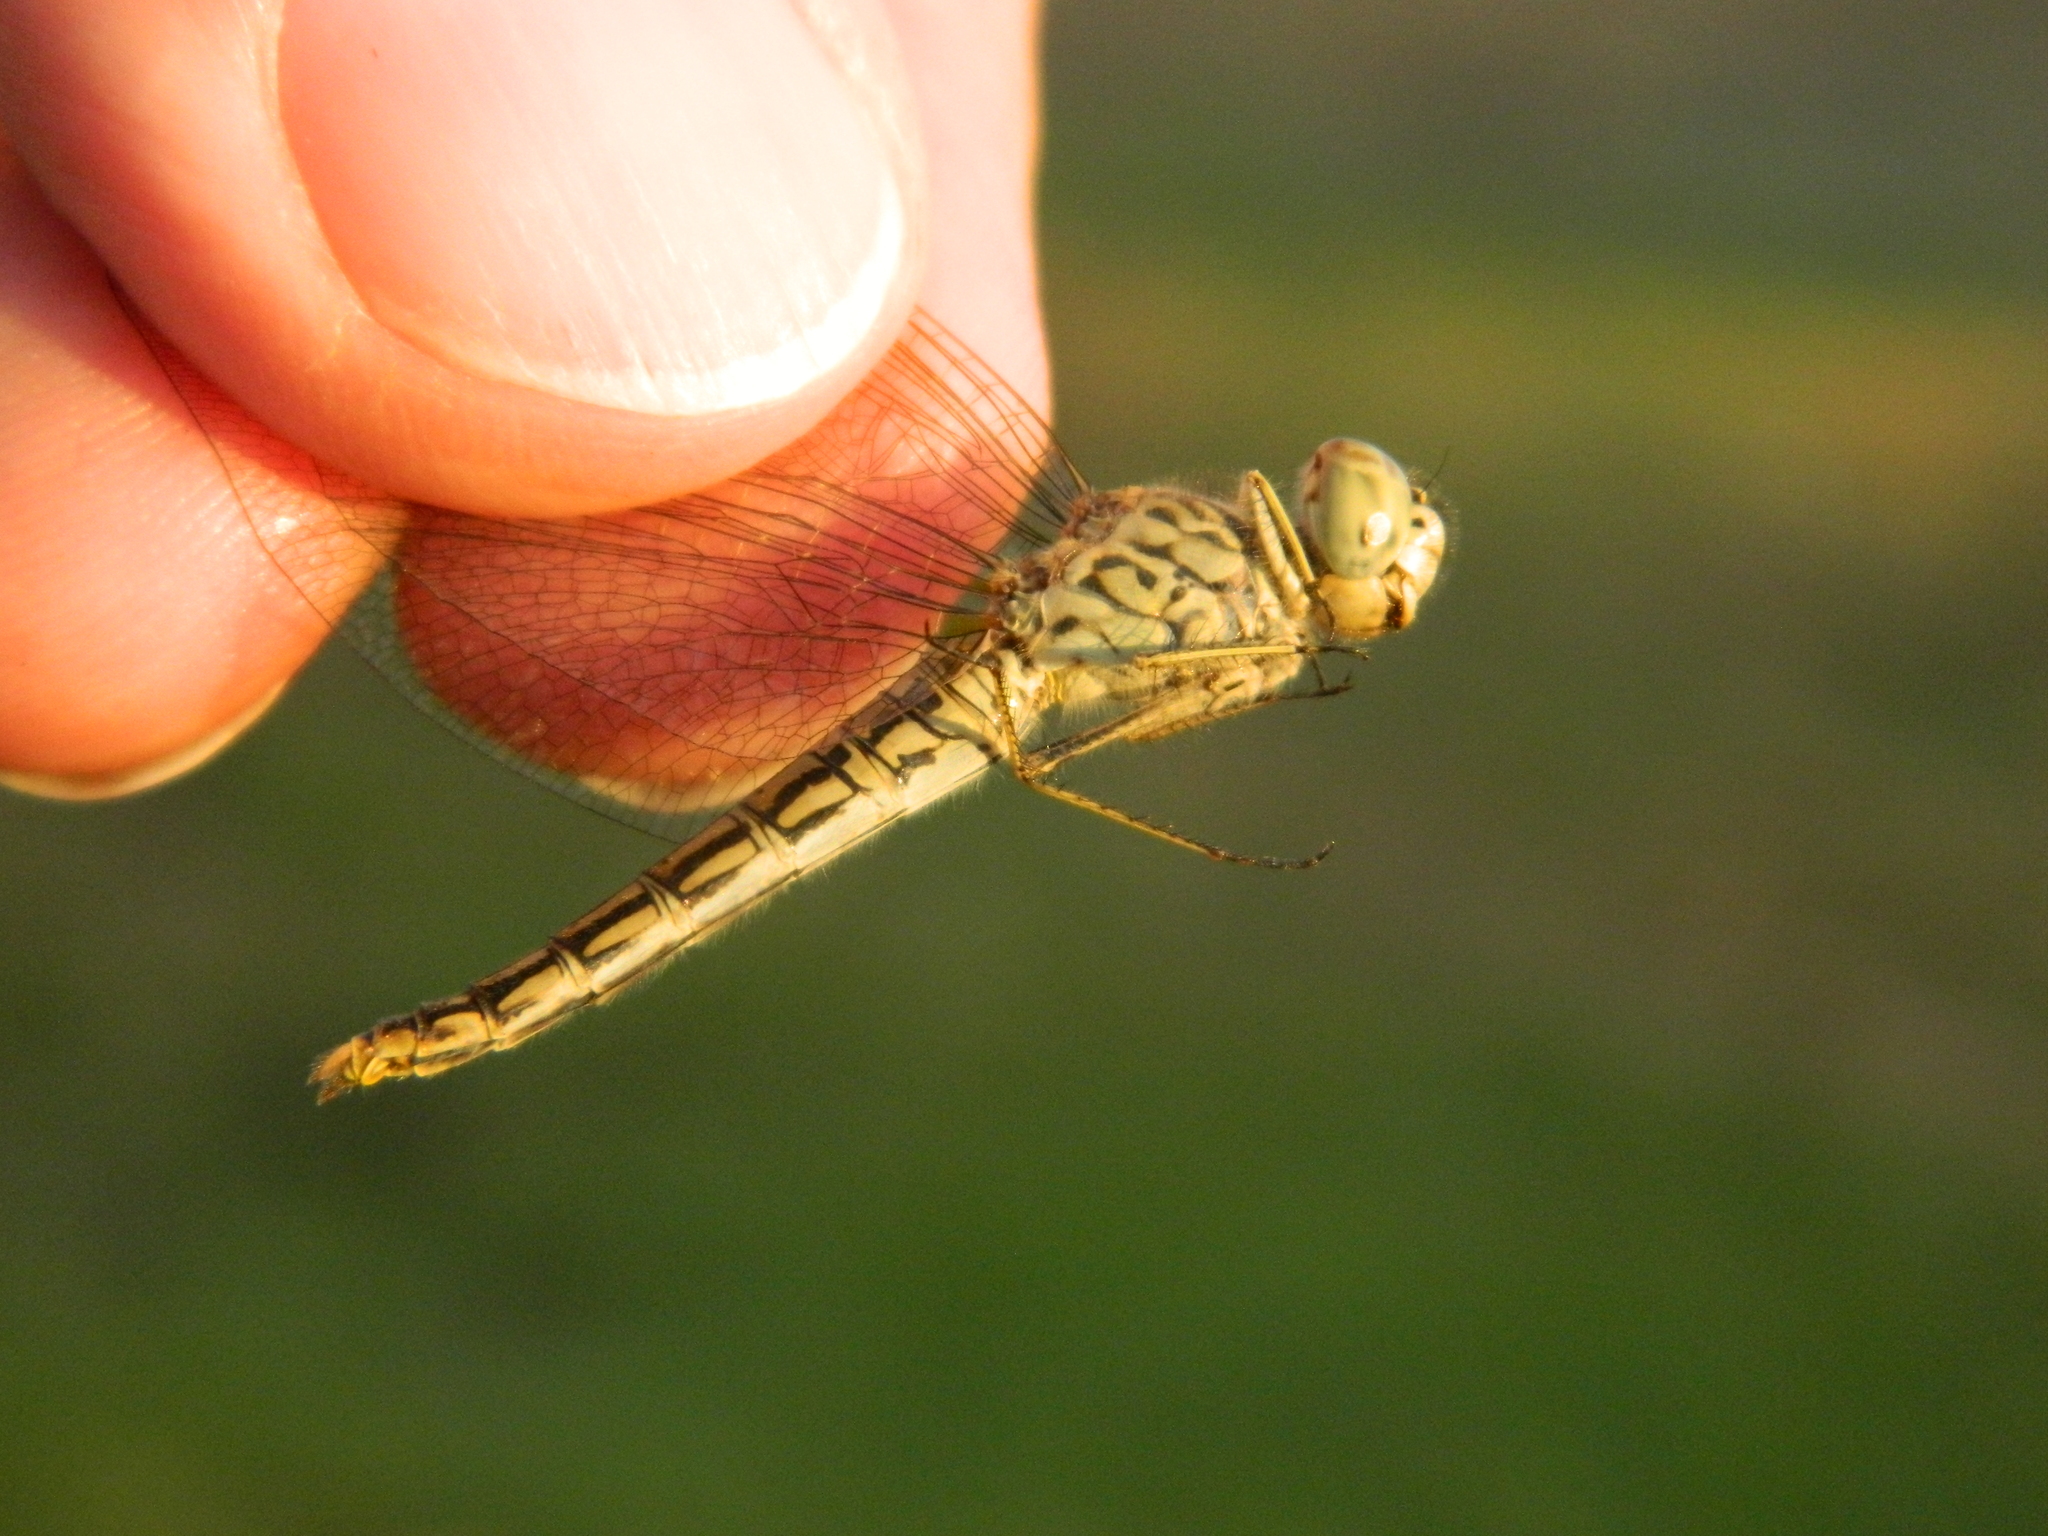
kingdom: Animalia
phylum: Arthropoda
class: Insecta
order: Odonata
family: Libellulidae
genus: Brachythemis
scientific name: Brachythemis leucosticta
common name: Banded groundling
